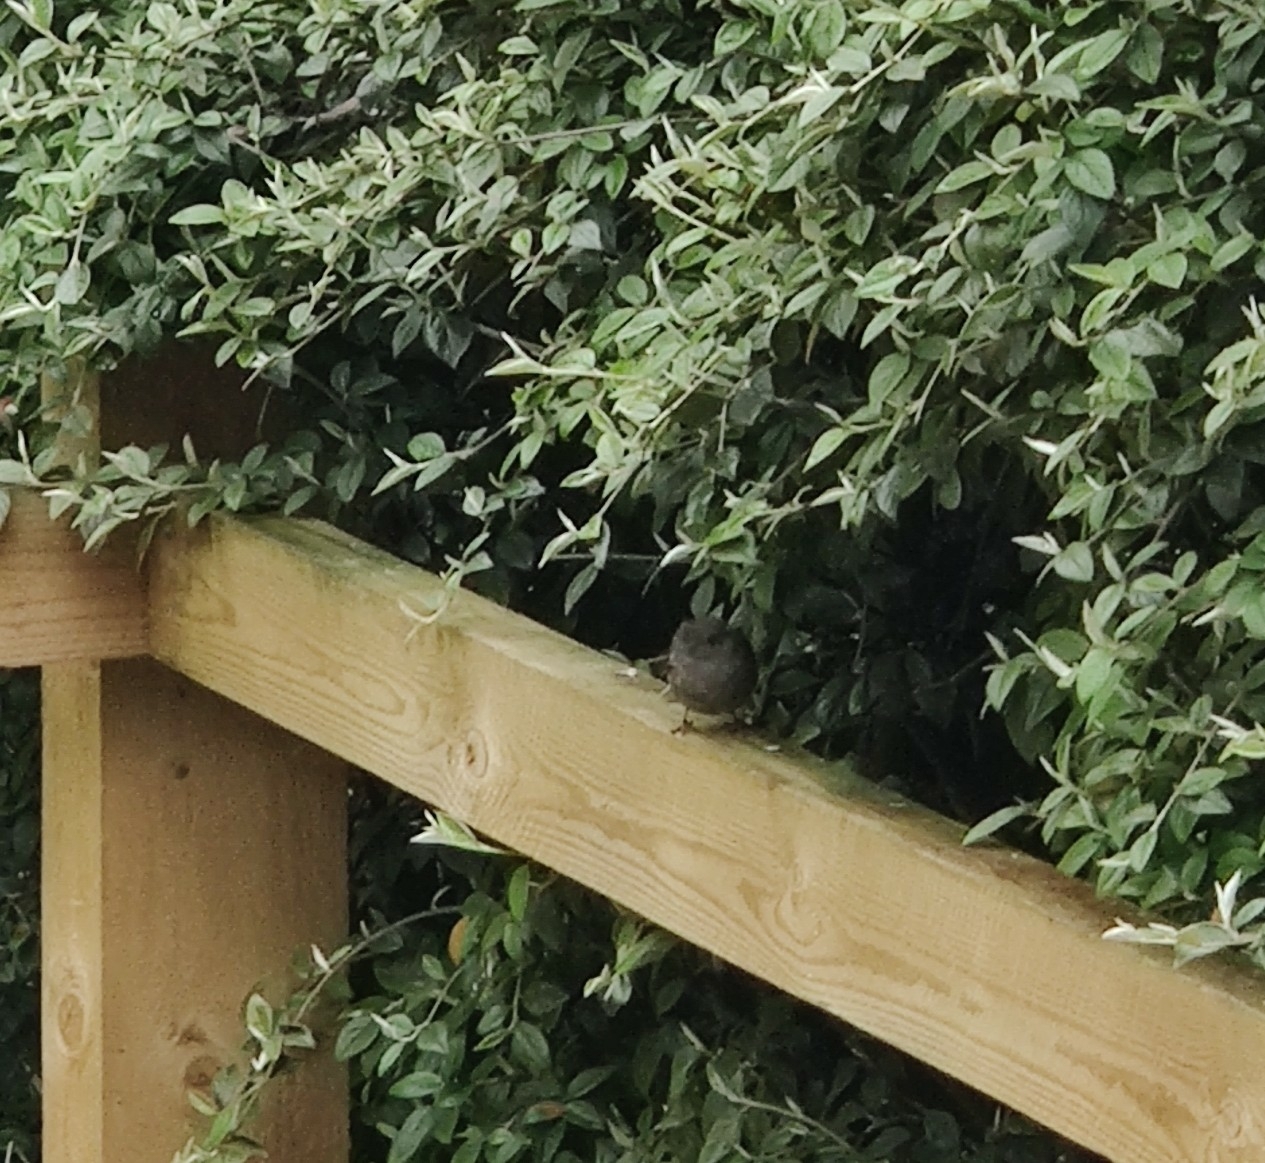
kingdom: Animalia
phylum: Chordata
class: Aves
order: Passeriformes
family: Prunellidae
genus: Prunella
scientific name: Prunella modularis
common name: Dunnock
